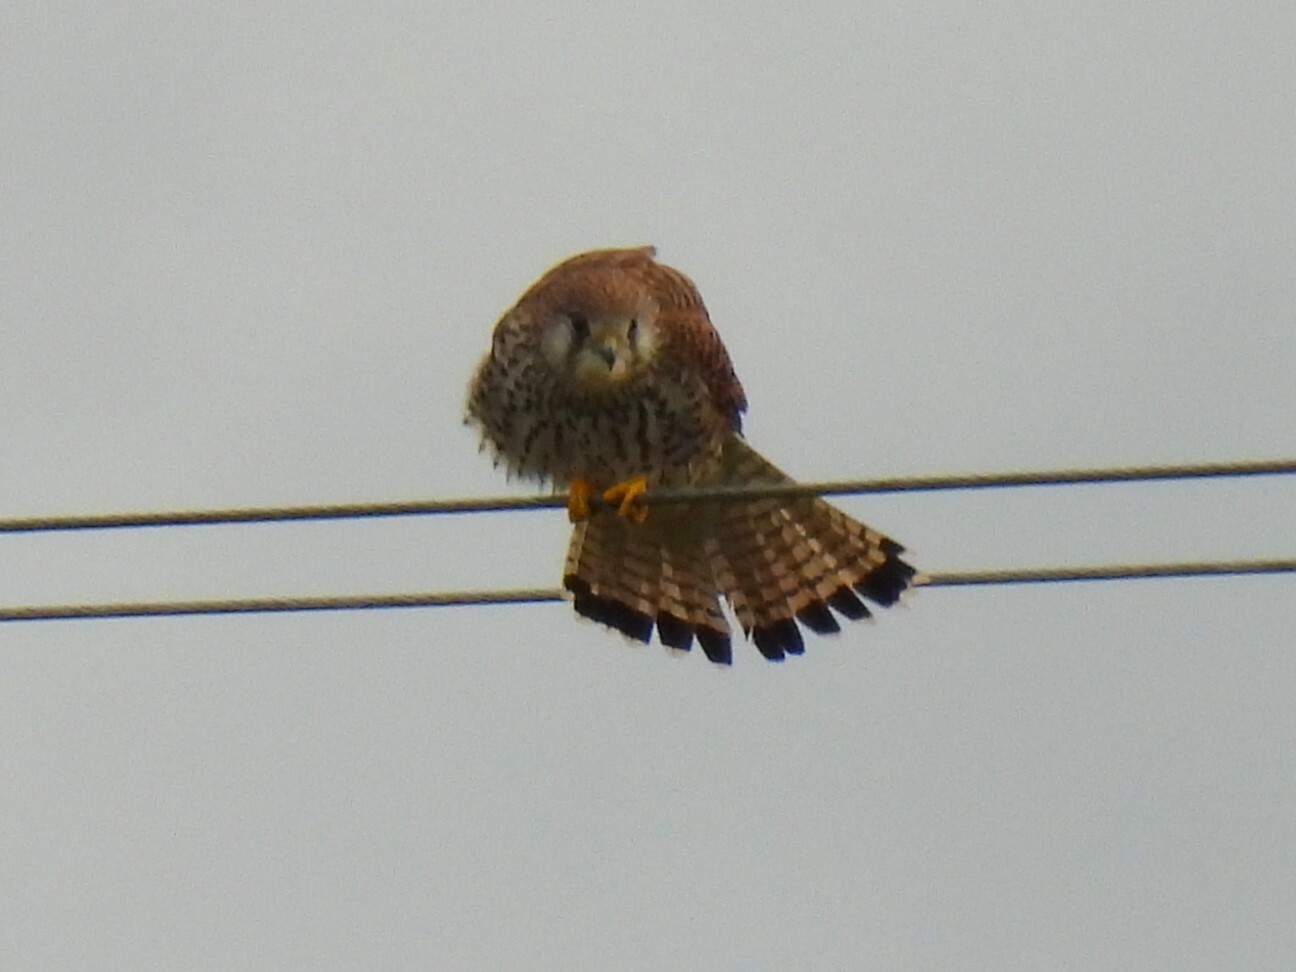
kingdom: Animalia
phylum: Chordata
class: Aves
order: Falconiformes
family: Falconidae
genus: Falco
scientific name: Falco tinnunculus
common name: Common kestrel
